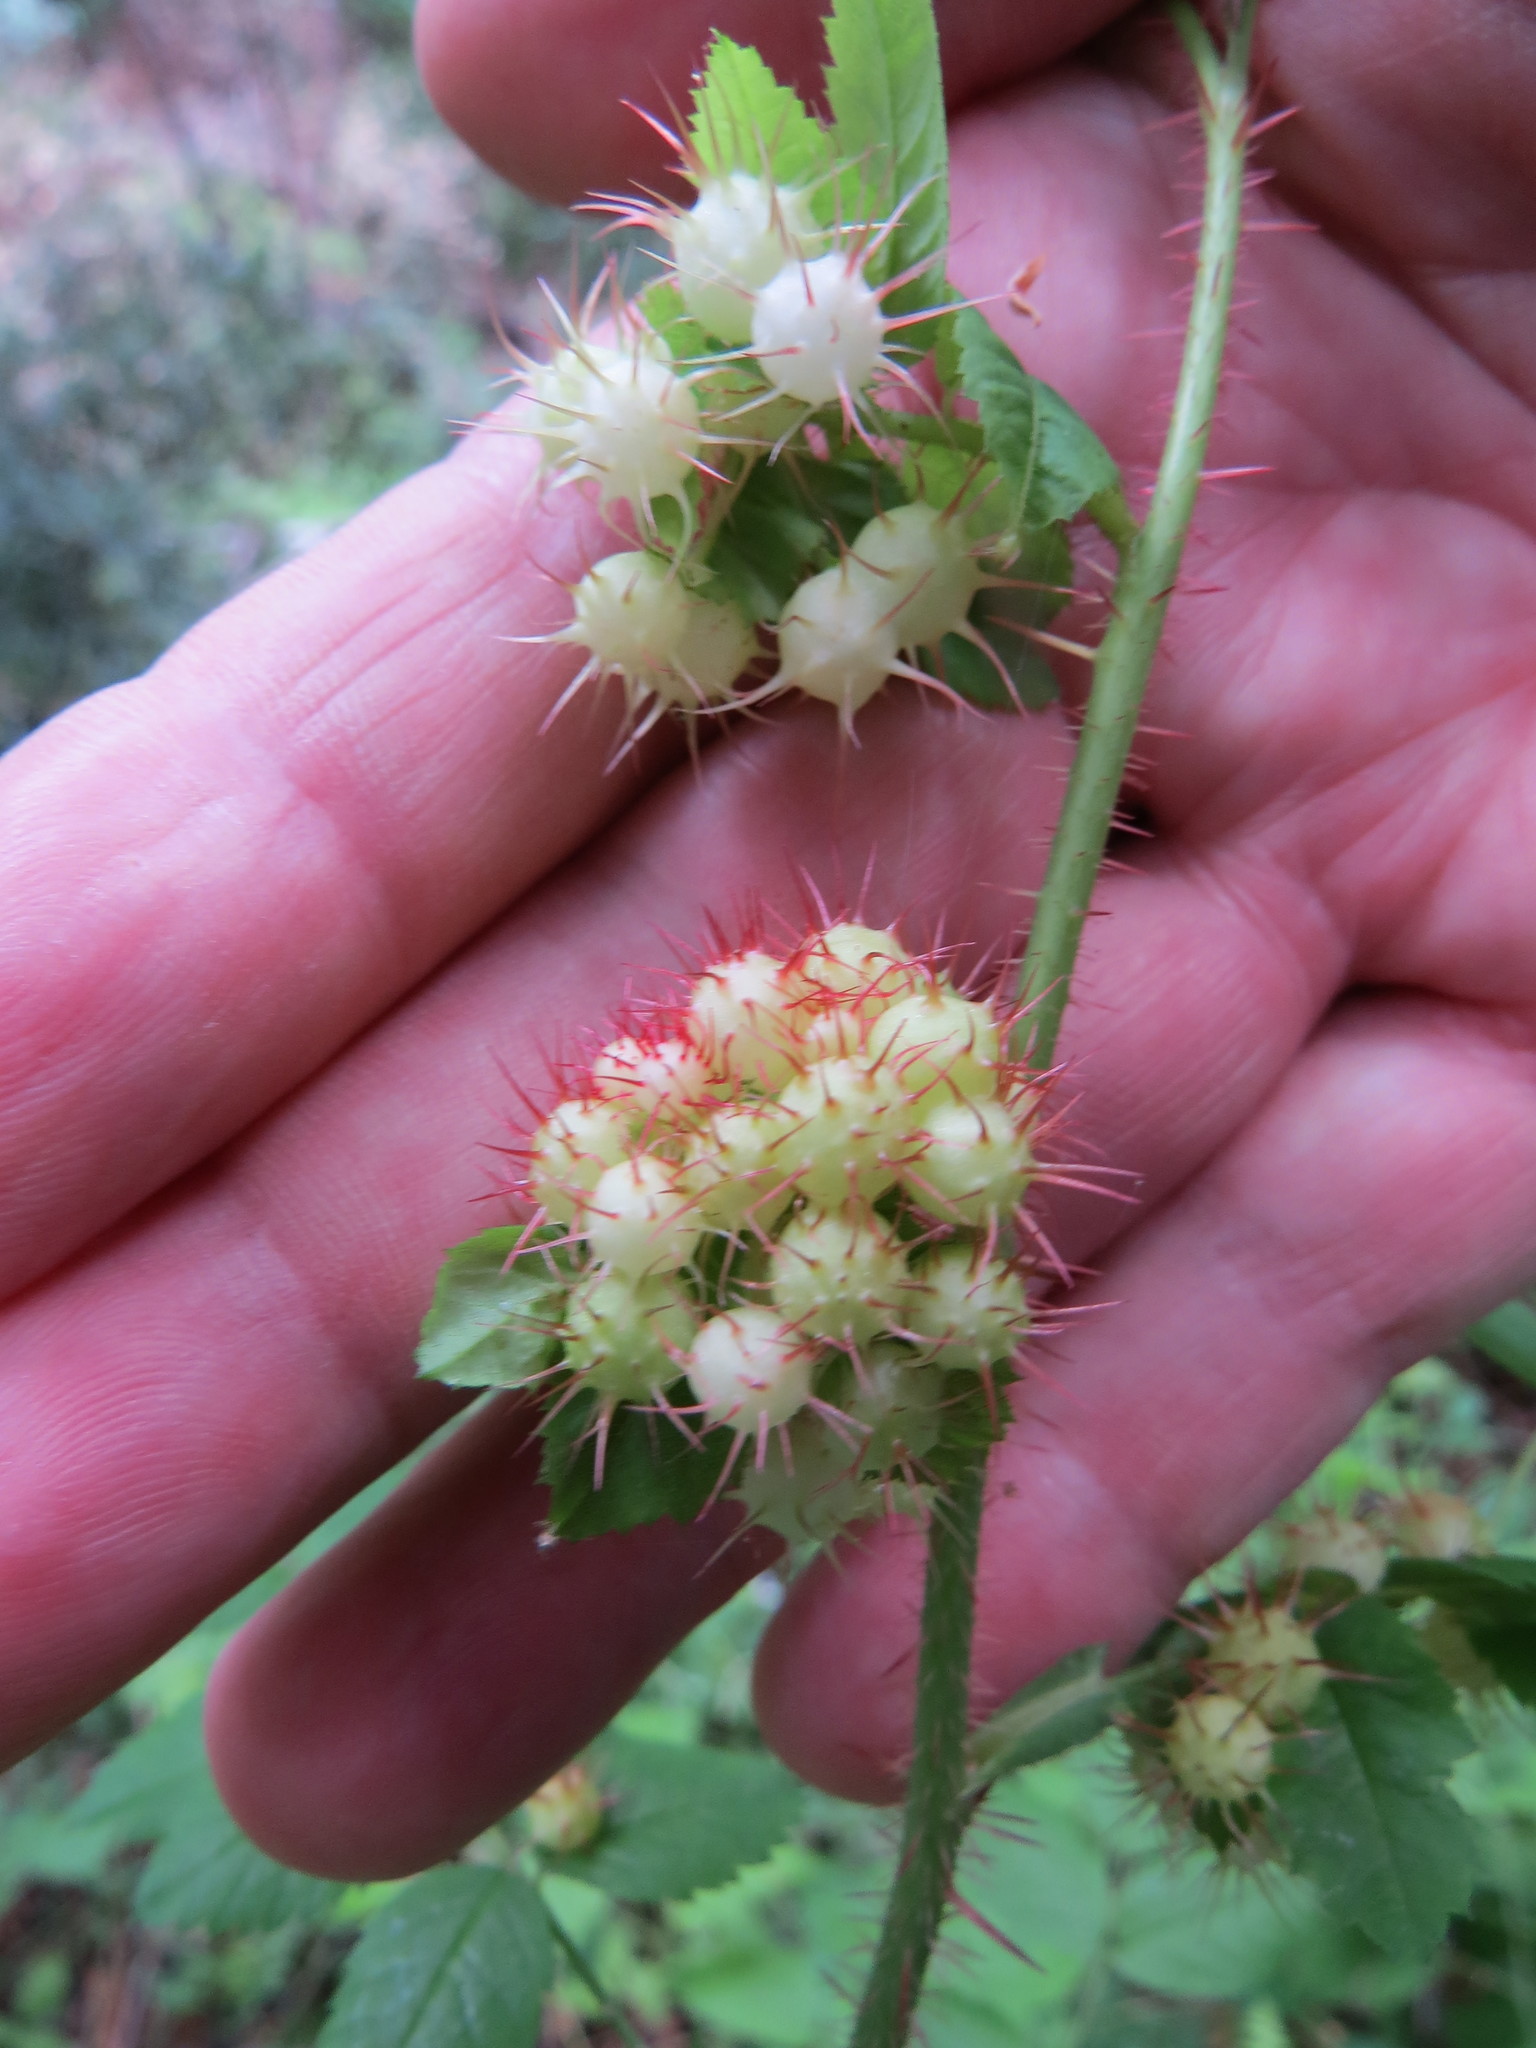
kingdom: Animalia
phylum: Arthropoda
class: Insecta
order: Hymenoptera
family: Cynipidae
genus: Diplolepis
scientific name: Diplolepis polita
